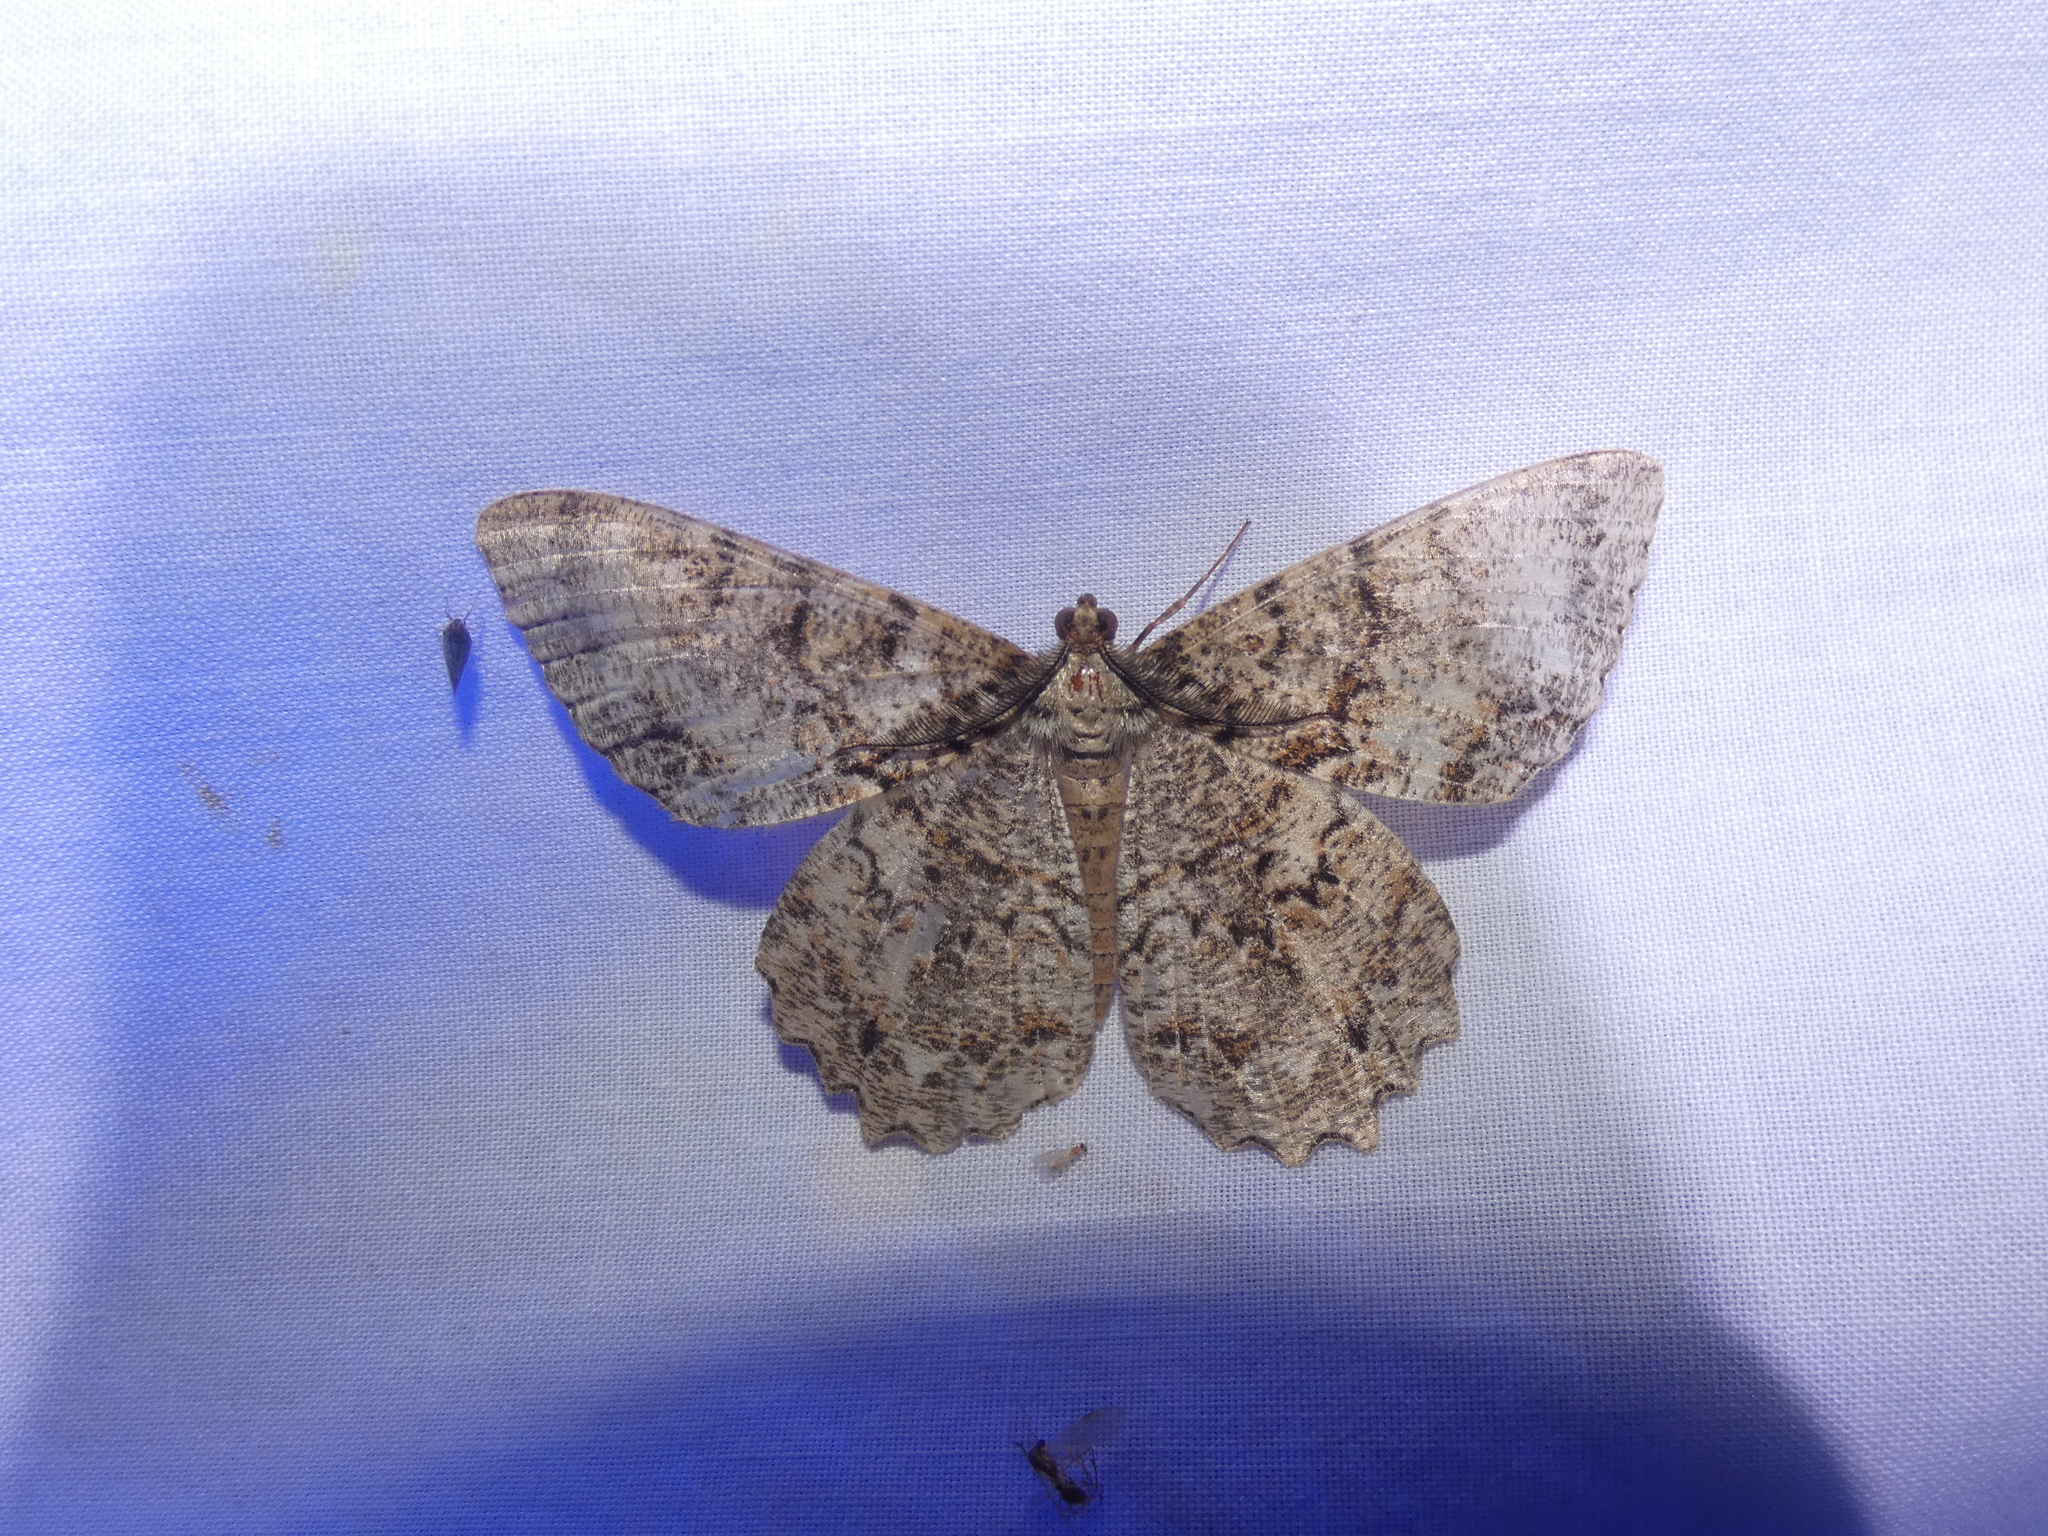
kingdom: Animalia
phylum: Arthropoda
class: Insecta
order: Lepidoptera
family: Geometridae
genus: Epimecis
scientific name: Epimecis hortaria
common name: Tulip-tree beauty
